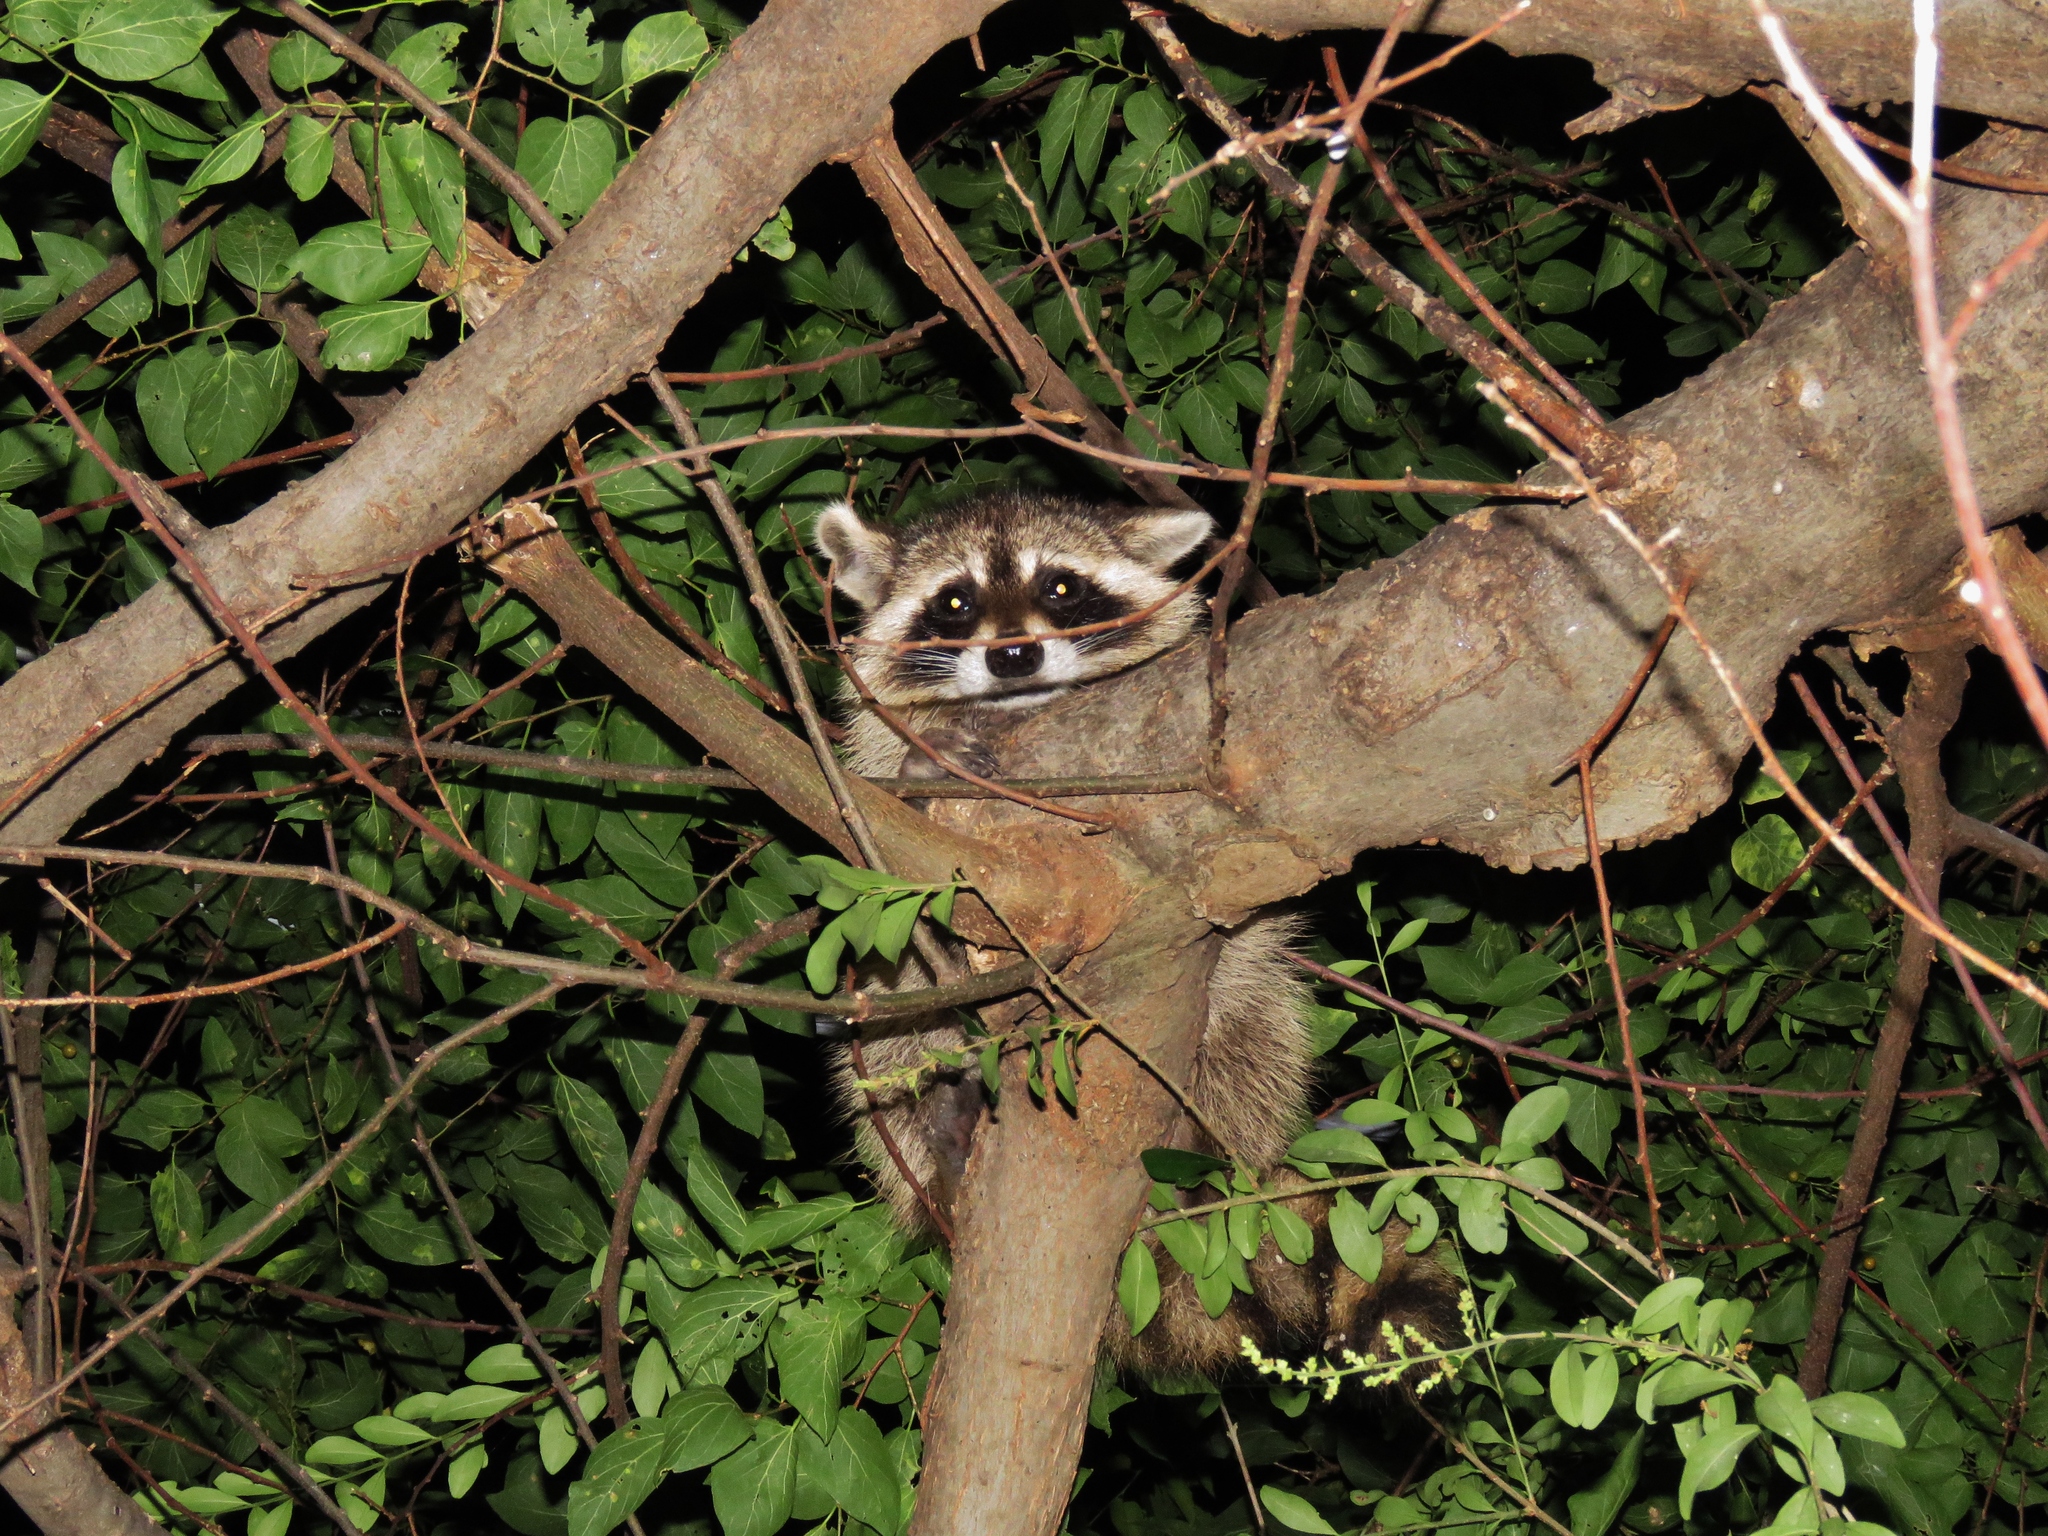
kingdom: Animalia
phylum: Chordata
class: Mammalia
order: Carnivora
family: Procyonidae
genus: Procyon
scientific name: Procyon lotor
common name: Raccoon
